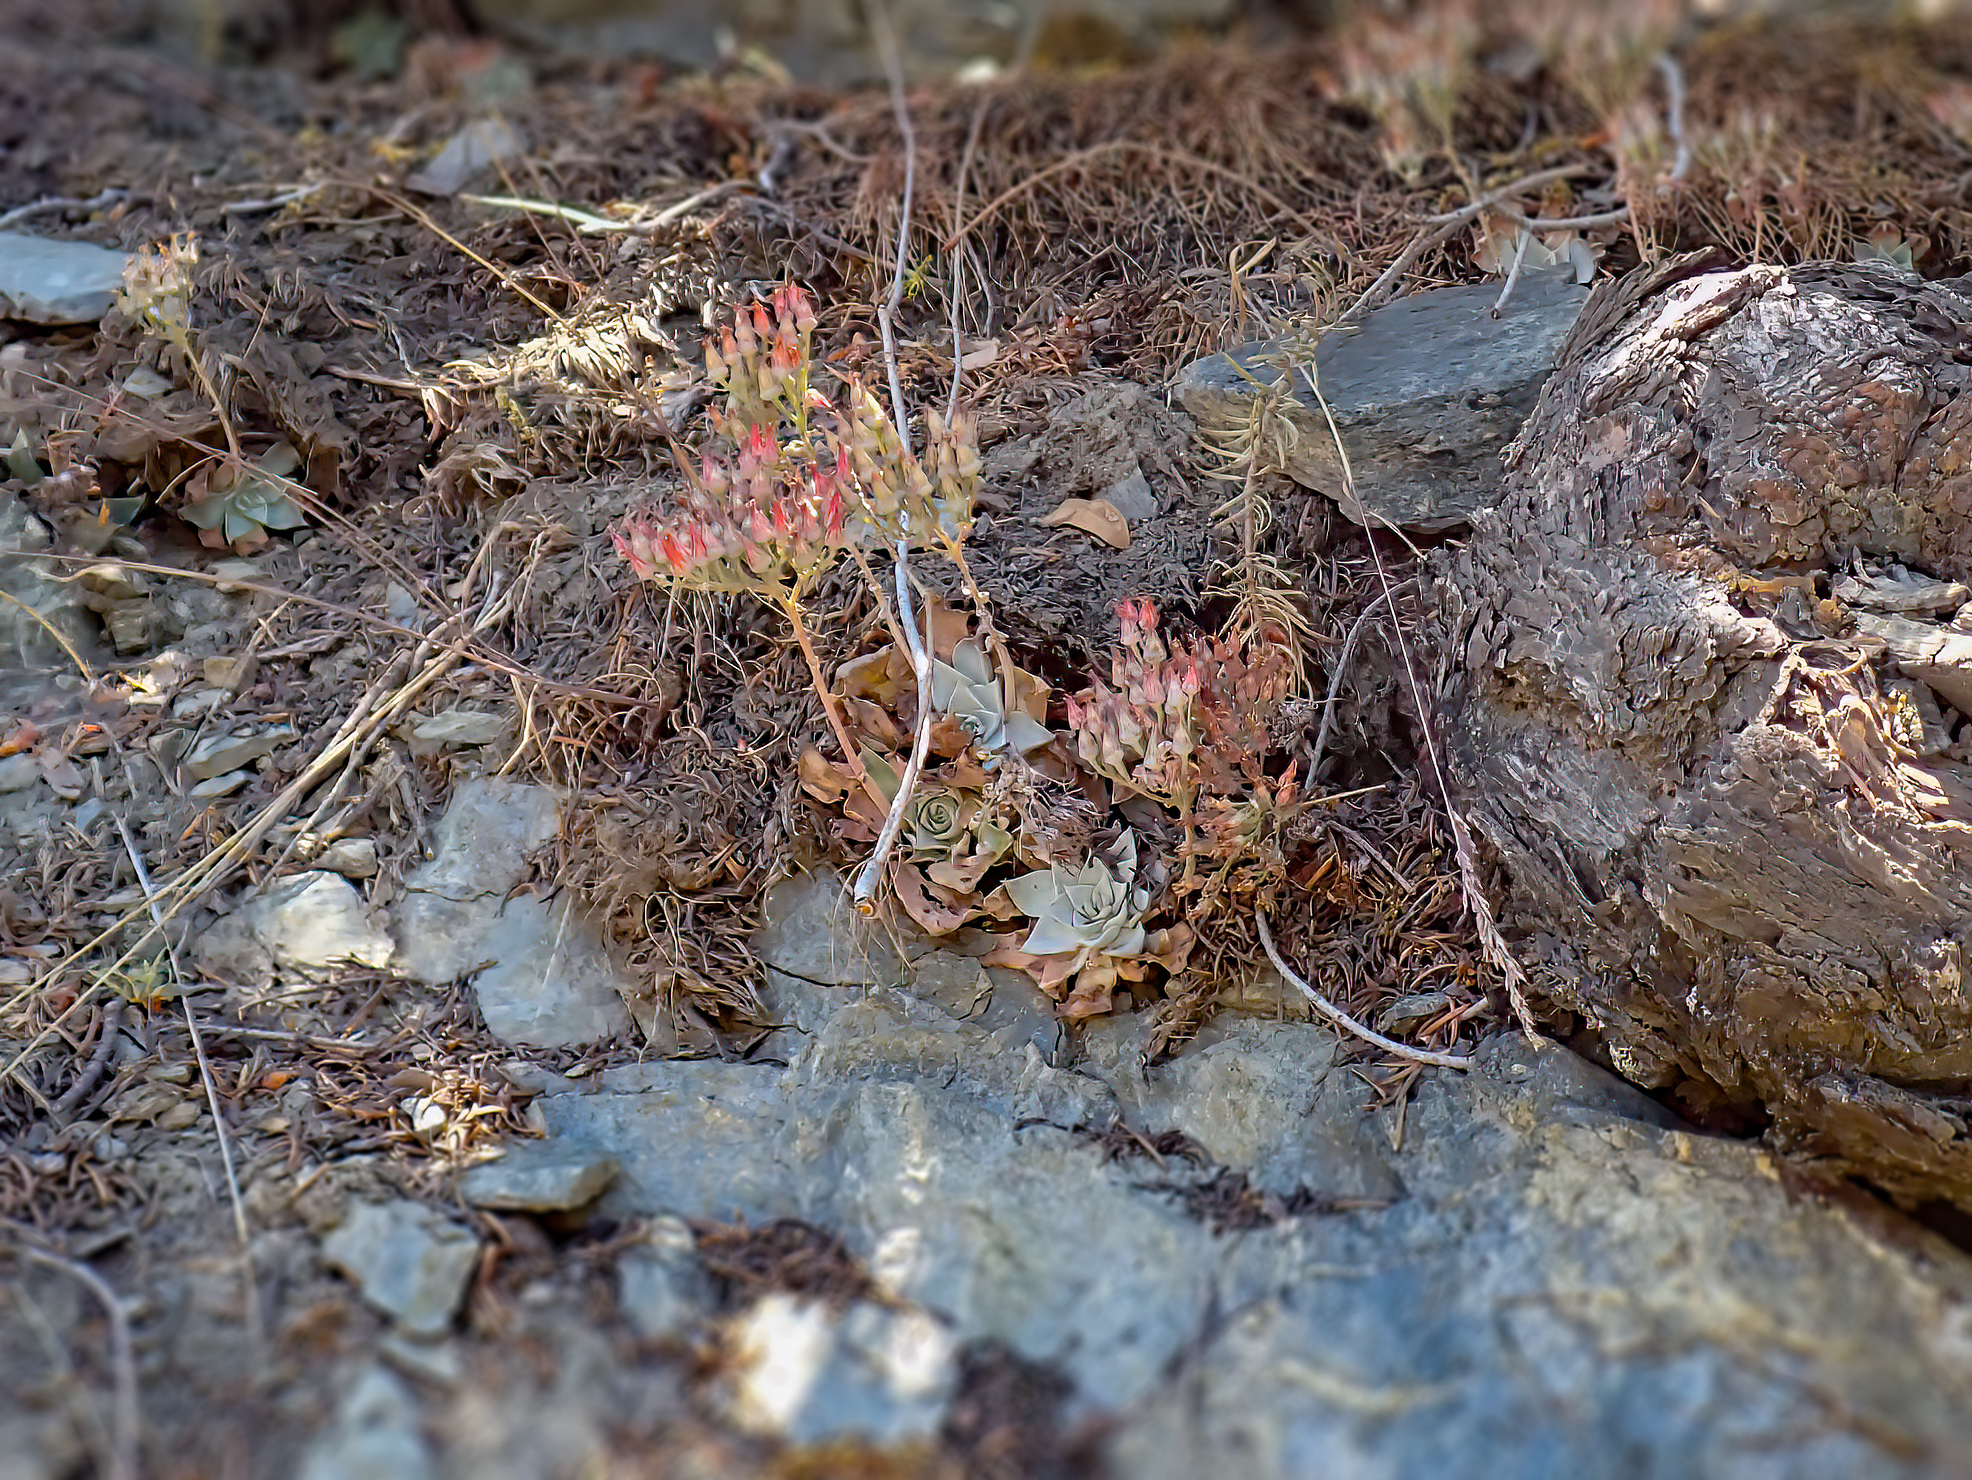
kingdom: Plantae
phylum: Tracheophyta
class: Magnoliopsida
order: Saxifragales
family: Crassulaceae
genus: Dudleya
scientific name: Dudleya cymosa
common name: Canyon dudleya
